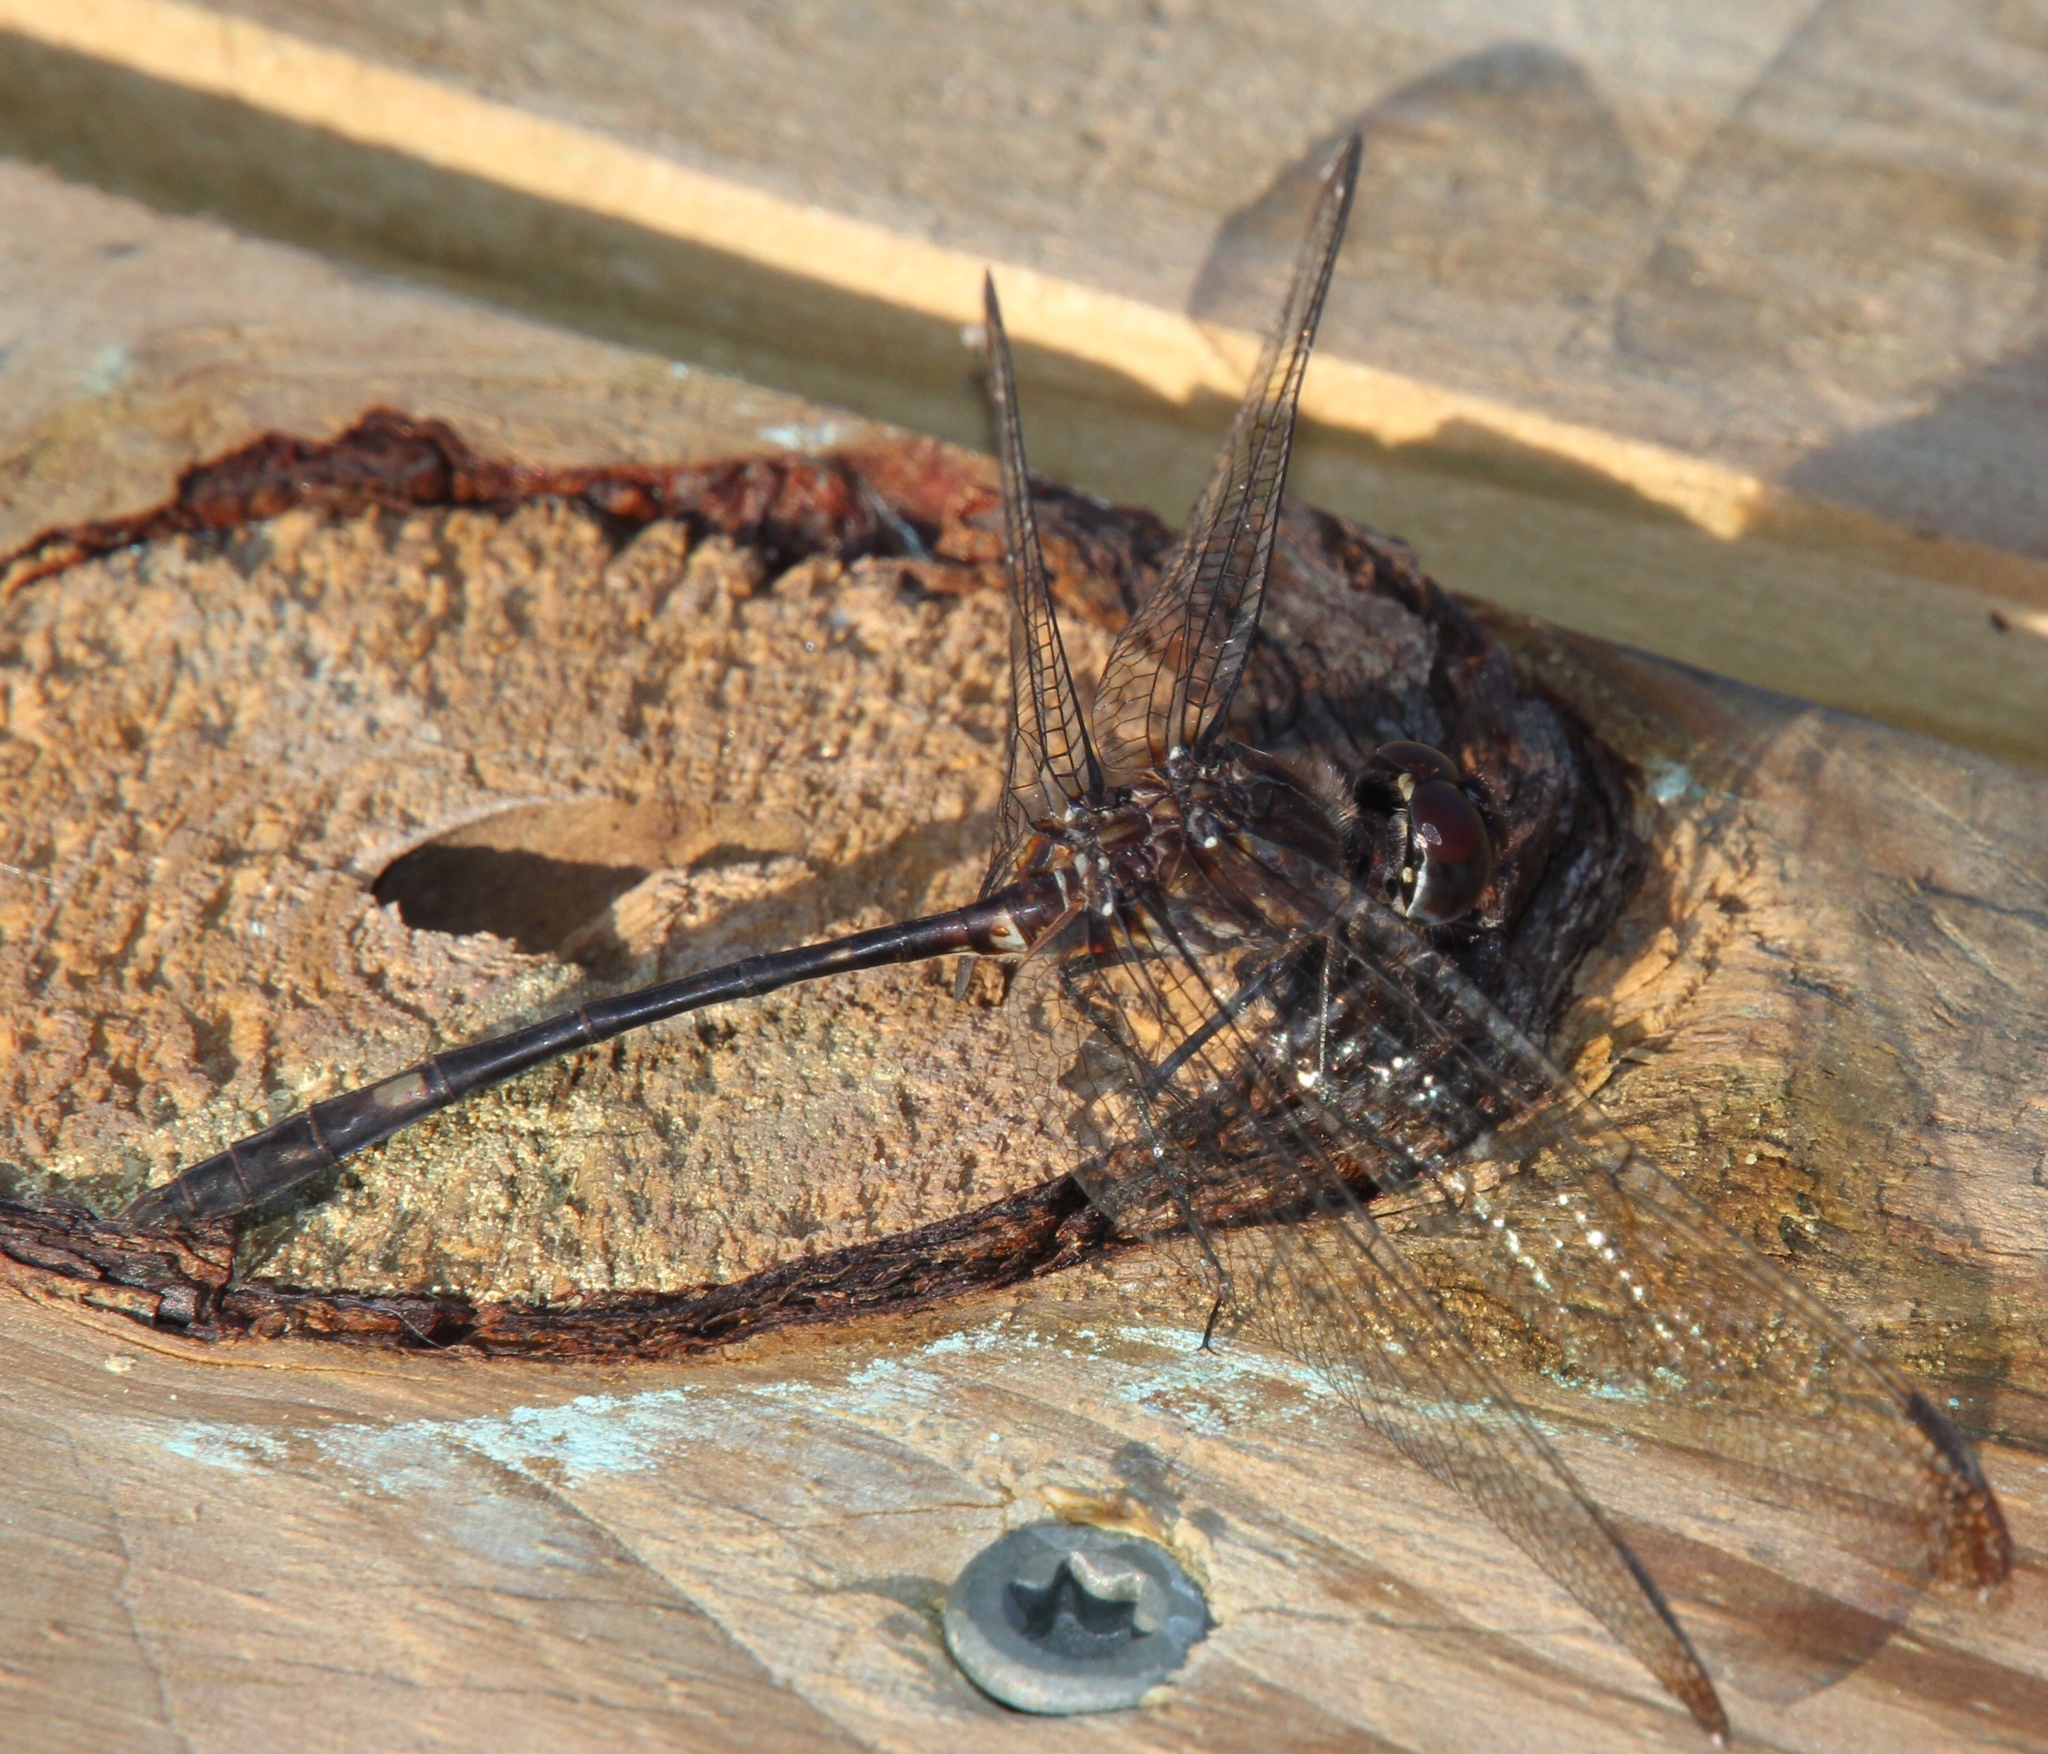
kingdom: Animalia
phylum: Arthropoda
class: Insecta
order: Odonata
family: Libellulidae
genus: Dythemis
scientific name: Dythemis velox
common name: Swift setwing
